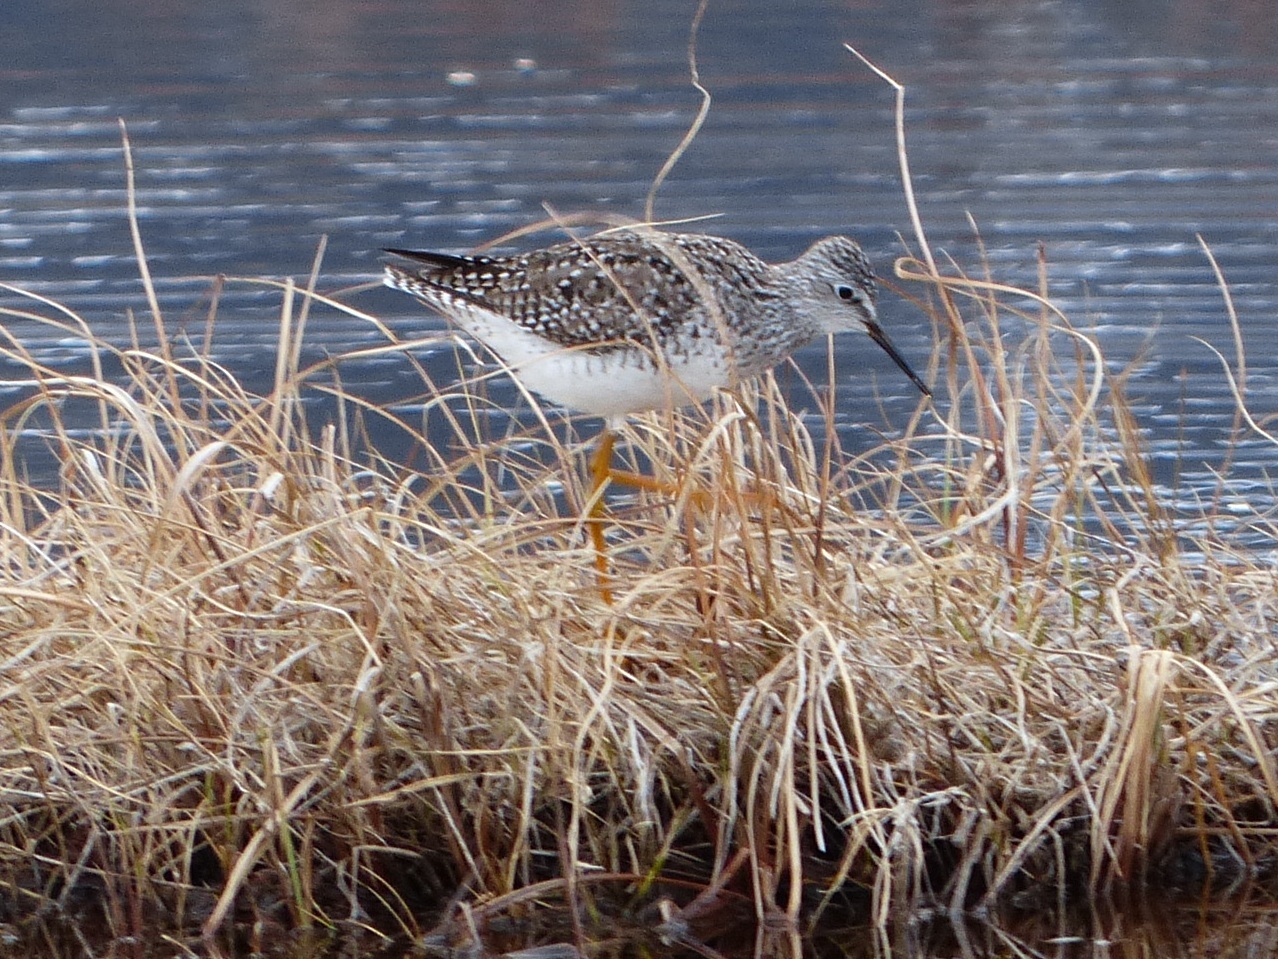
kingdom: Animalia
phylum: Chordata
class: Aves
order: Charadriiformes
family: Scolopacidae
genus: Tringa
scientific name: Tringa flavipes
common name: Lesser yellowlegs
